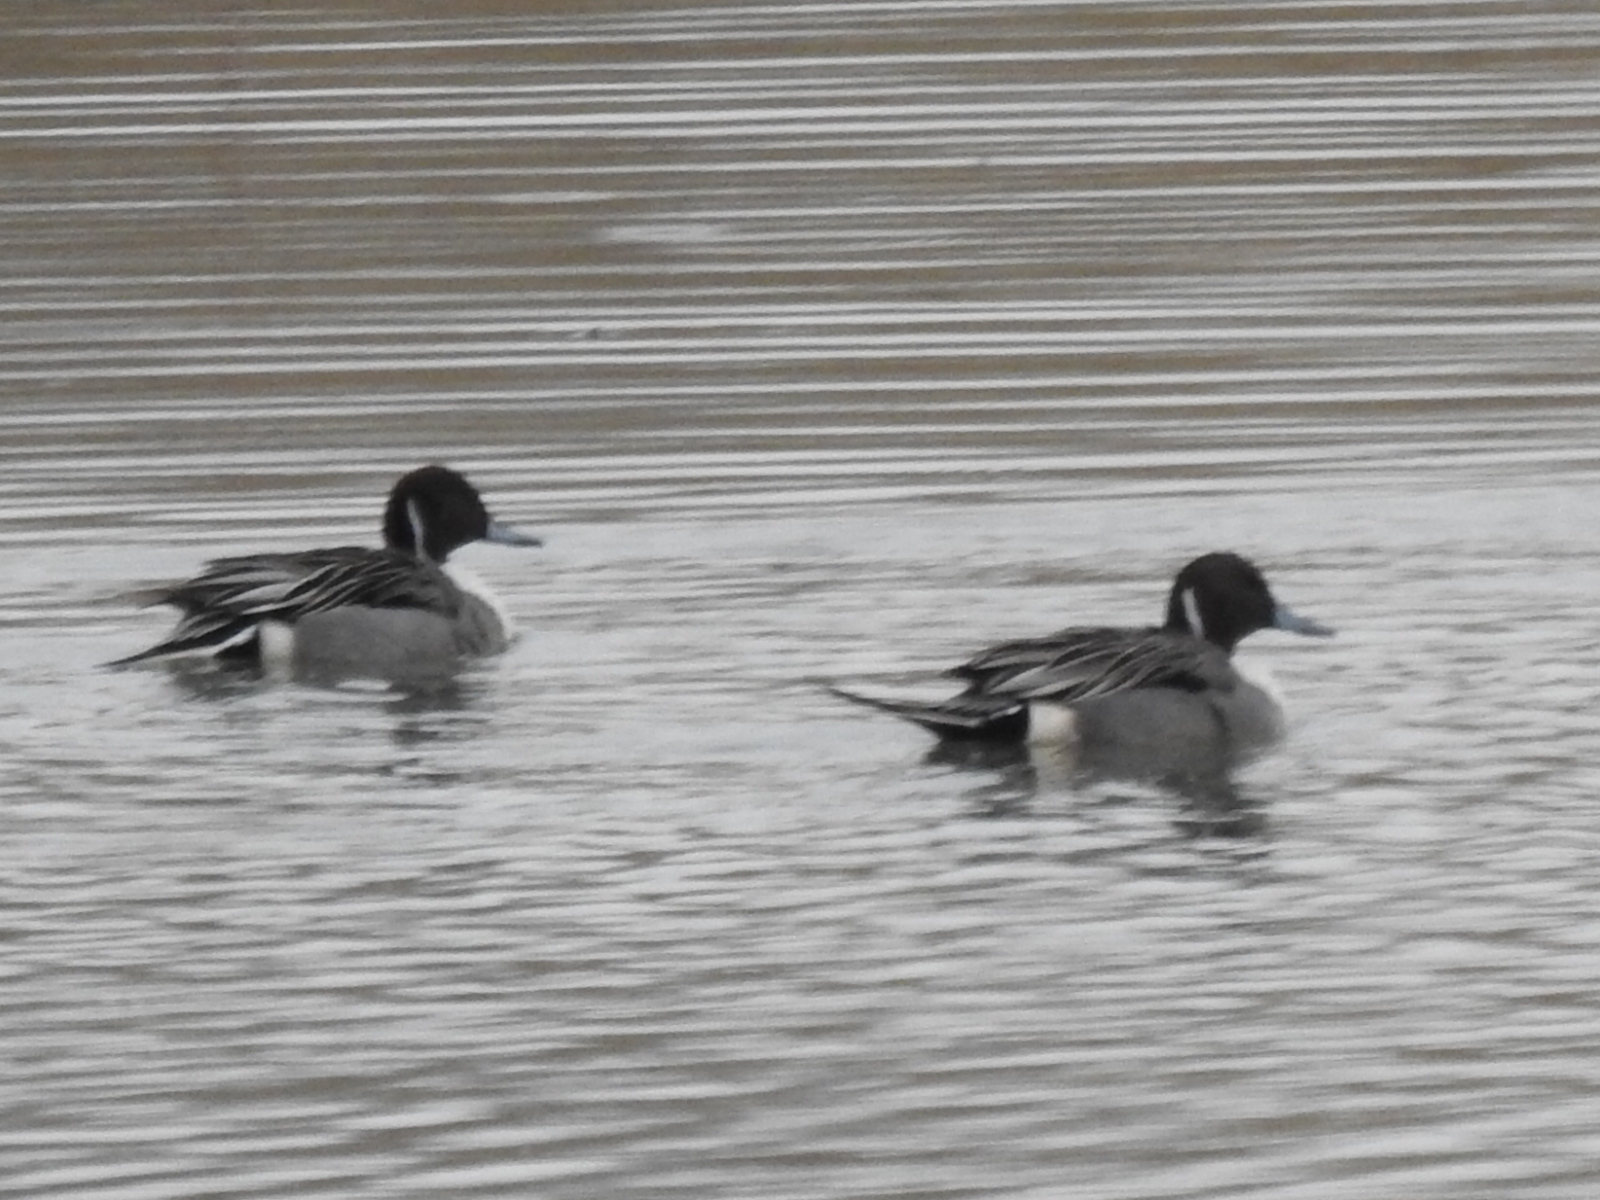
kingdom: Animalia
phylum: Chordata
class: Aves
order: Anseriformes
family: Anatidae
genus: Anas
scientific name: Anas acuta
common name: Northern pintail
